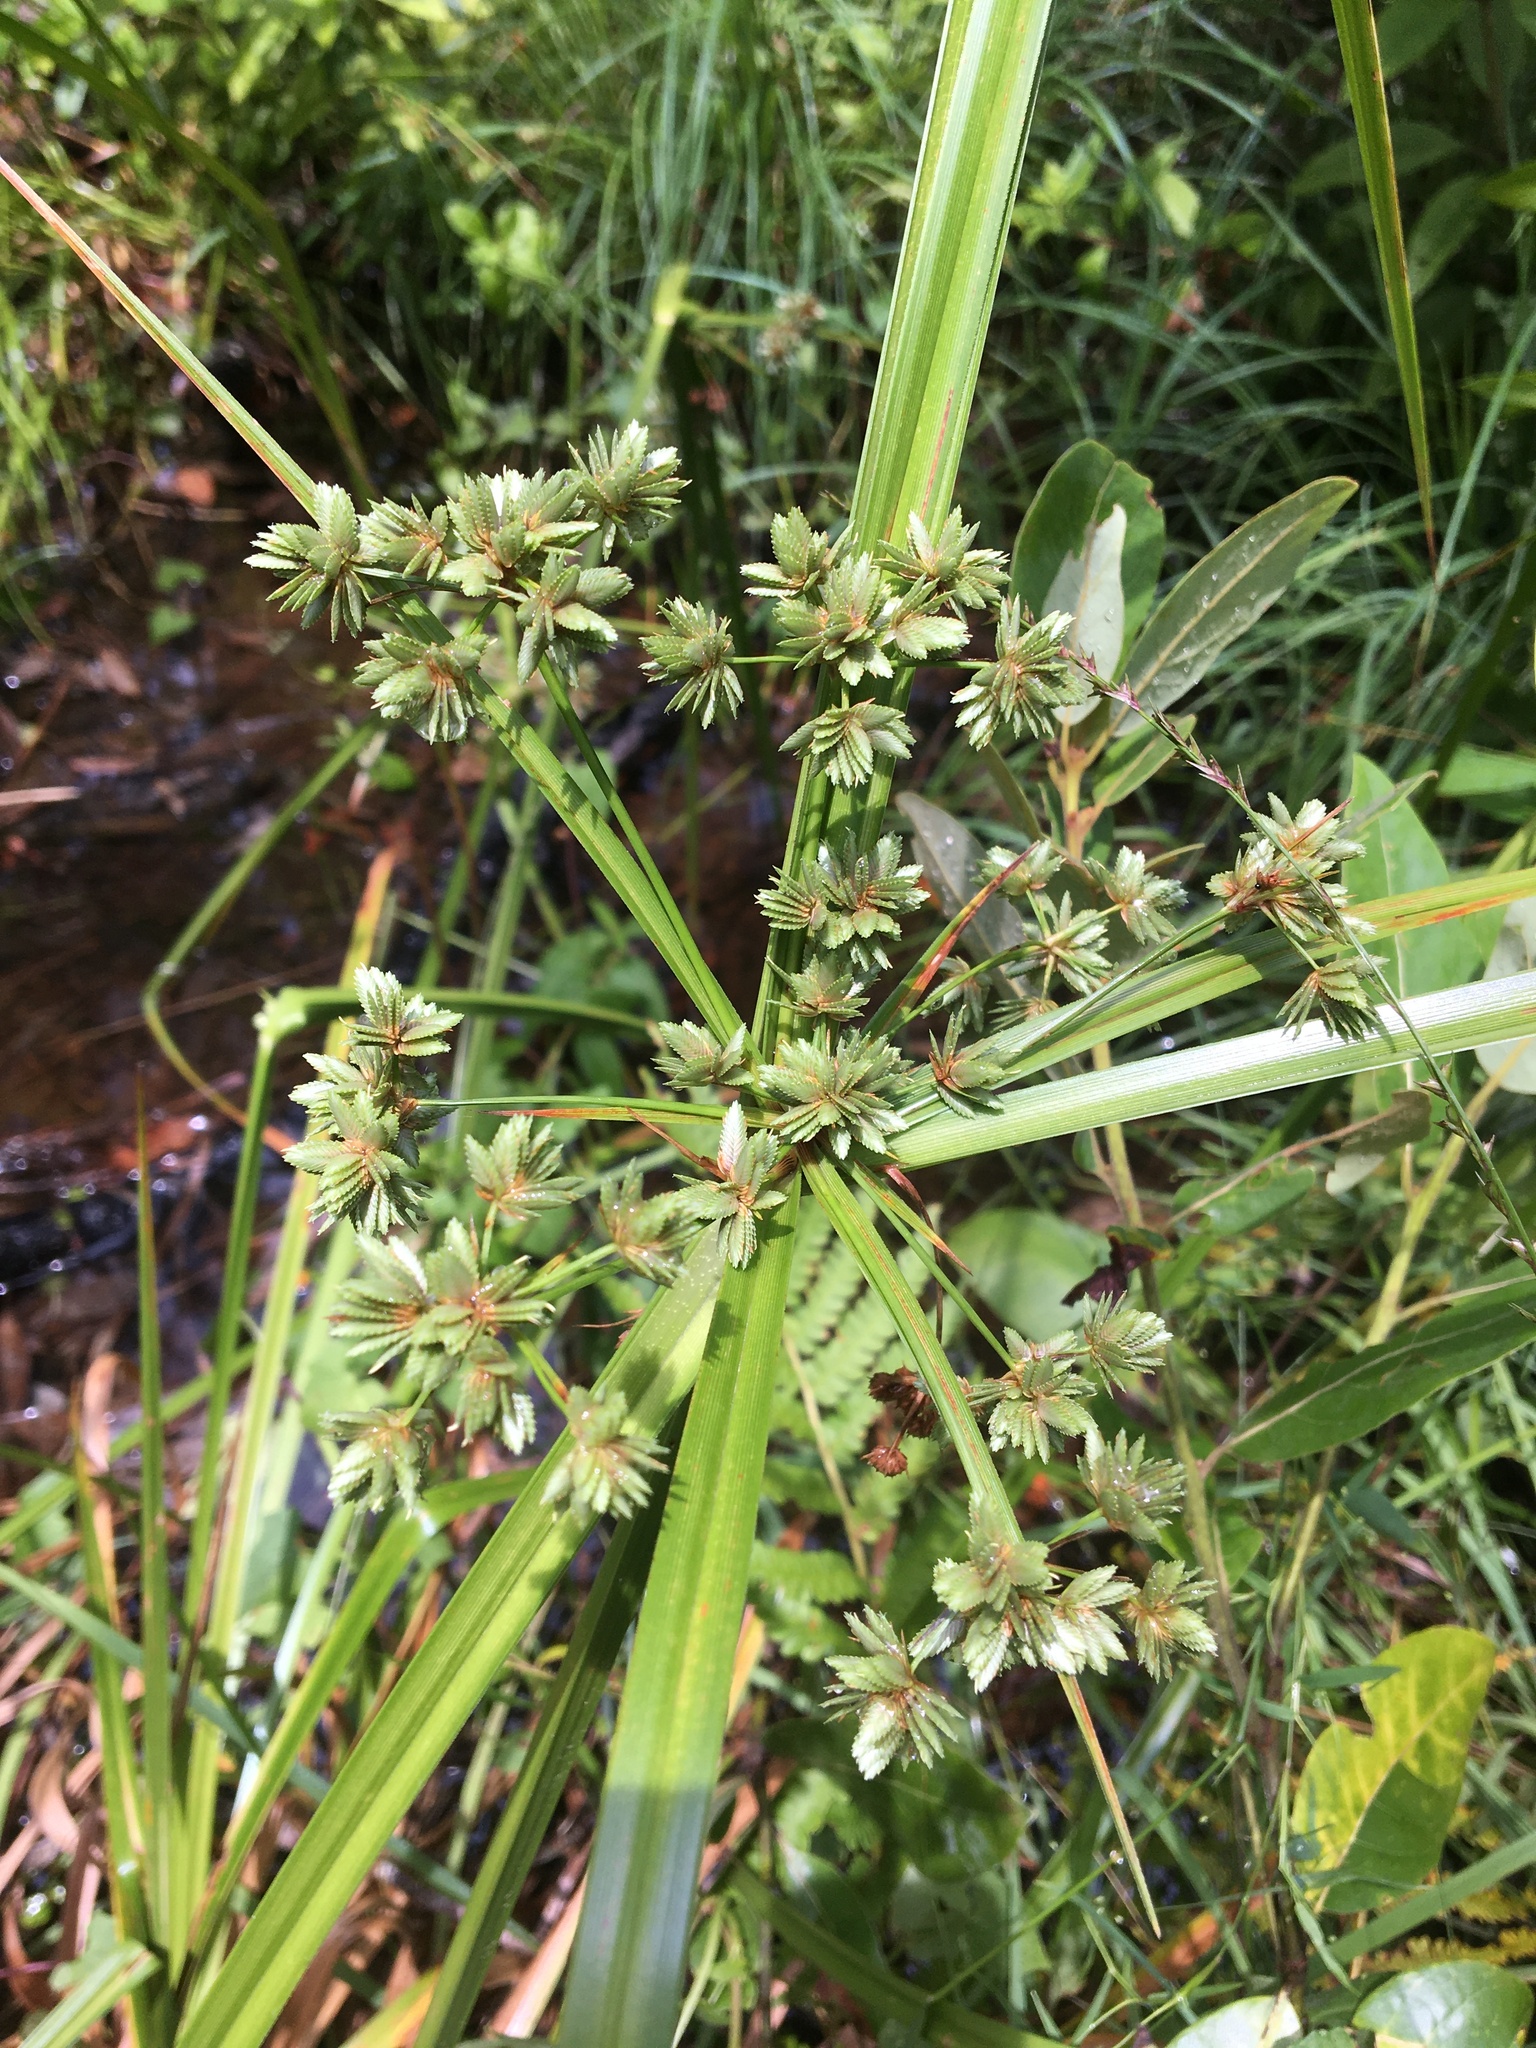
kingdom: Plantae
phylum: Tracheophyta
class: Liliopsida
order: Poales
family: Cyperaceae
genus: Cyperus
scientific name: Cyperus virens
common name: Green flatsedge
